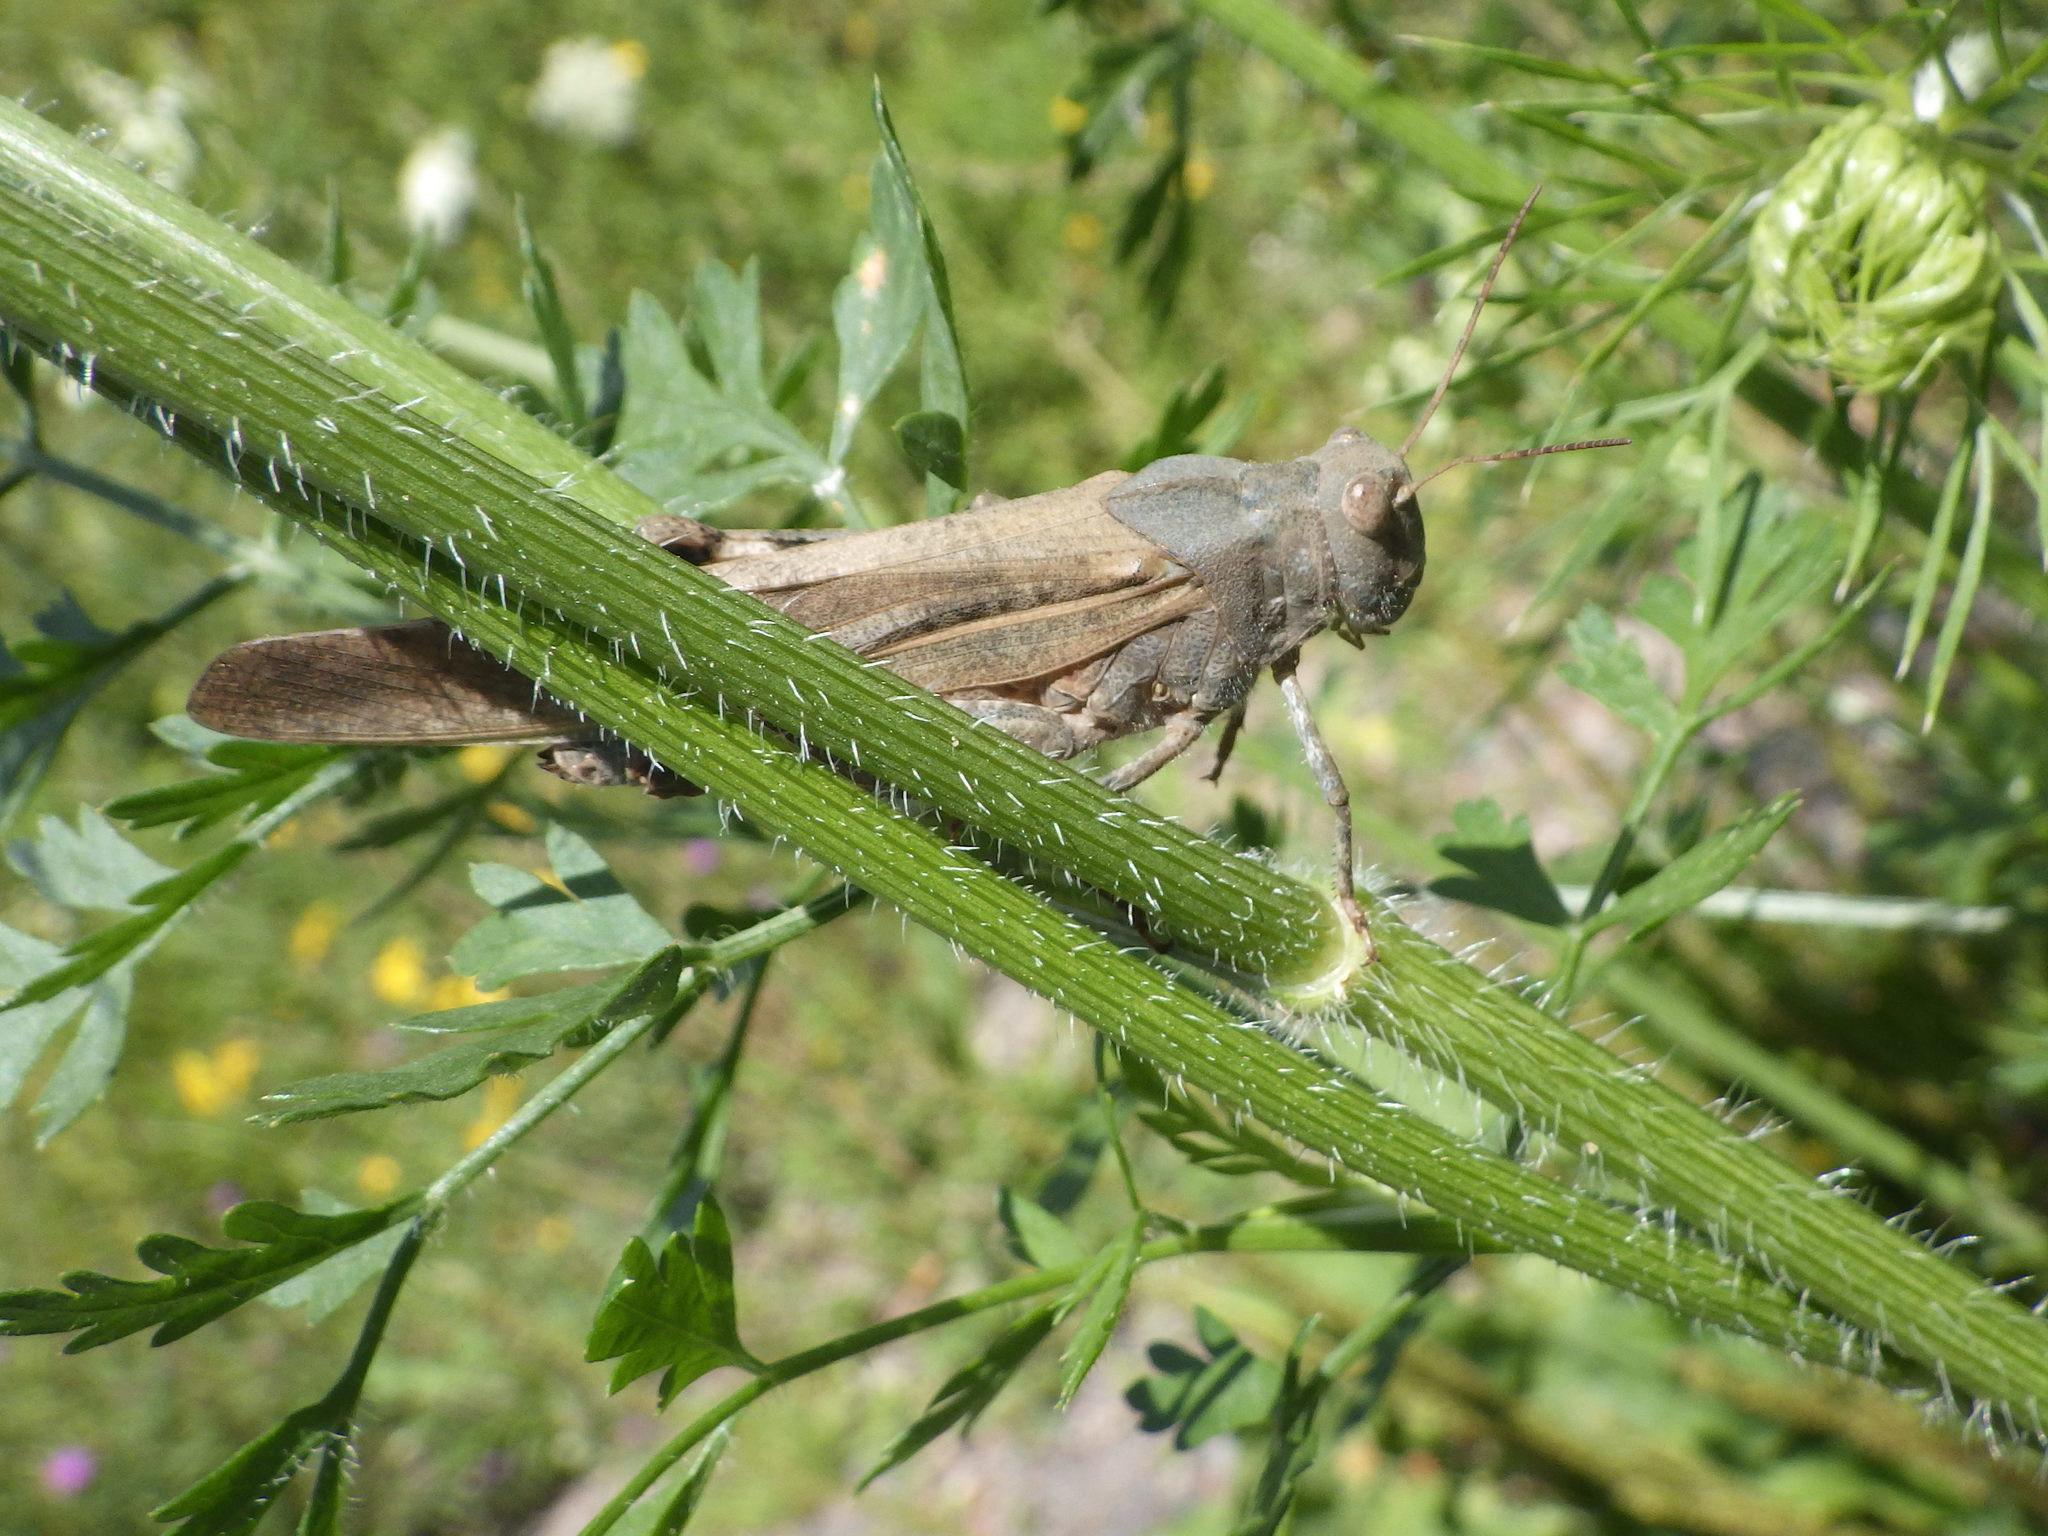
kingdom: Animalia
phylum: Arthropoda
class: Insecta
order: Orthoptera
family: Acrididae
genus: Dissosteira
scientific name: Dissosteira carolina
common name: Carolina grasshopper
